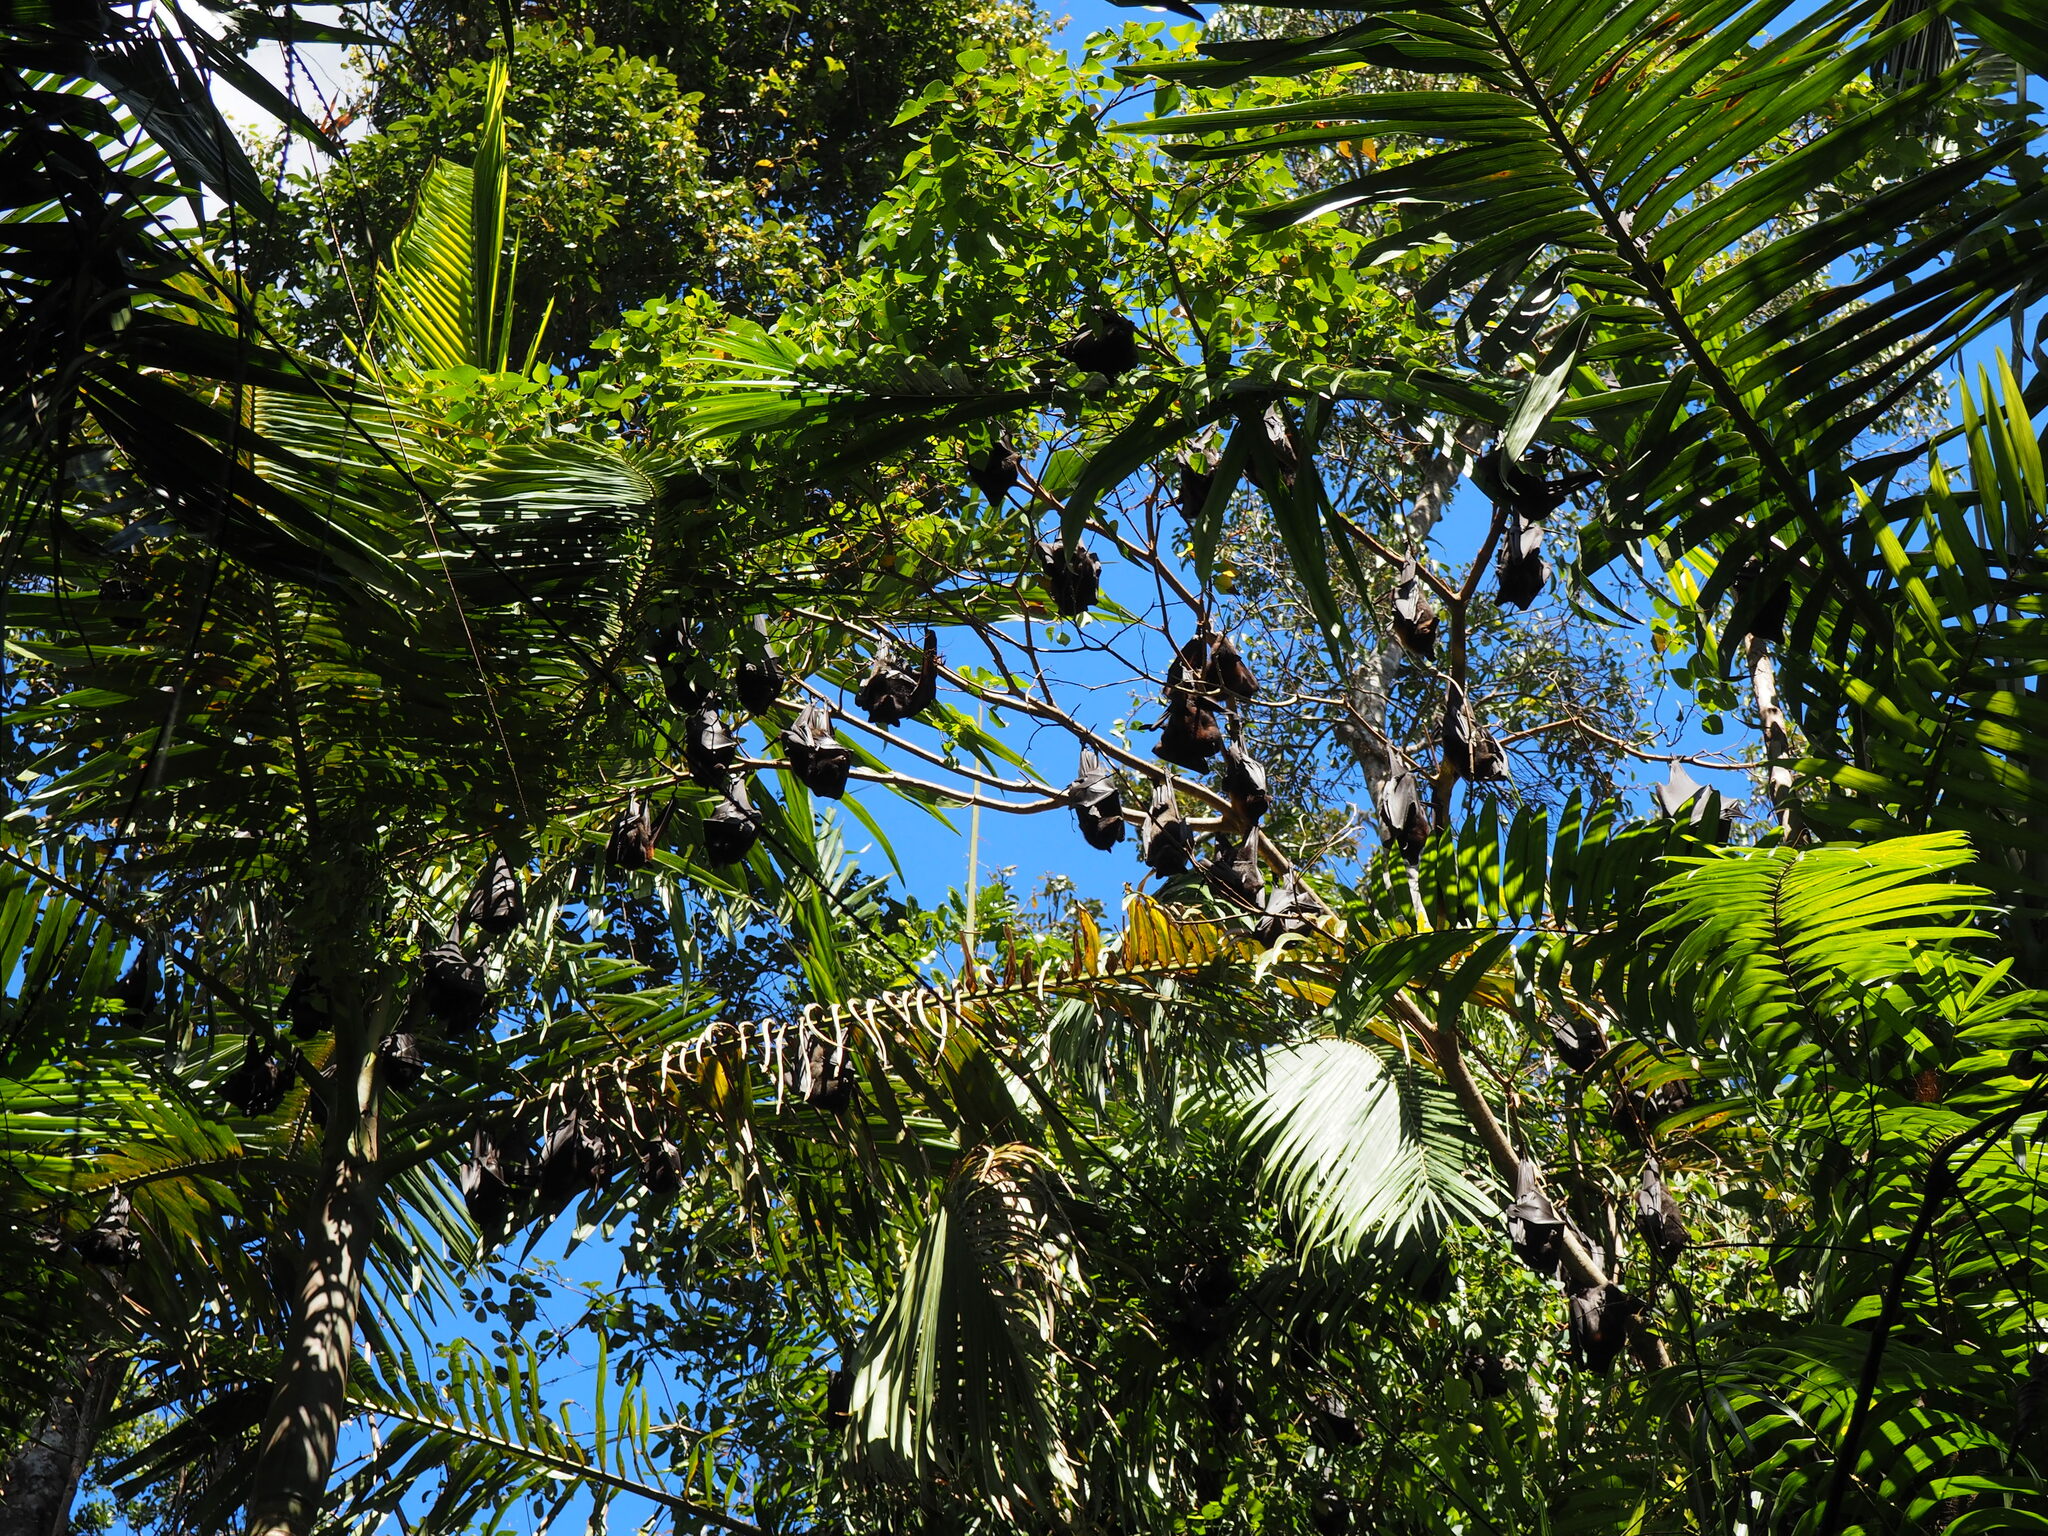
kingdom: Animalia
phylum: Chordata
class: Mammalia
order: Chiroptera
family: Pteropodidae
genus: Pteropus
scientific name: Pteropus scapulatus
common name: Little red flying fox
